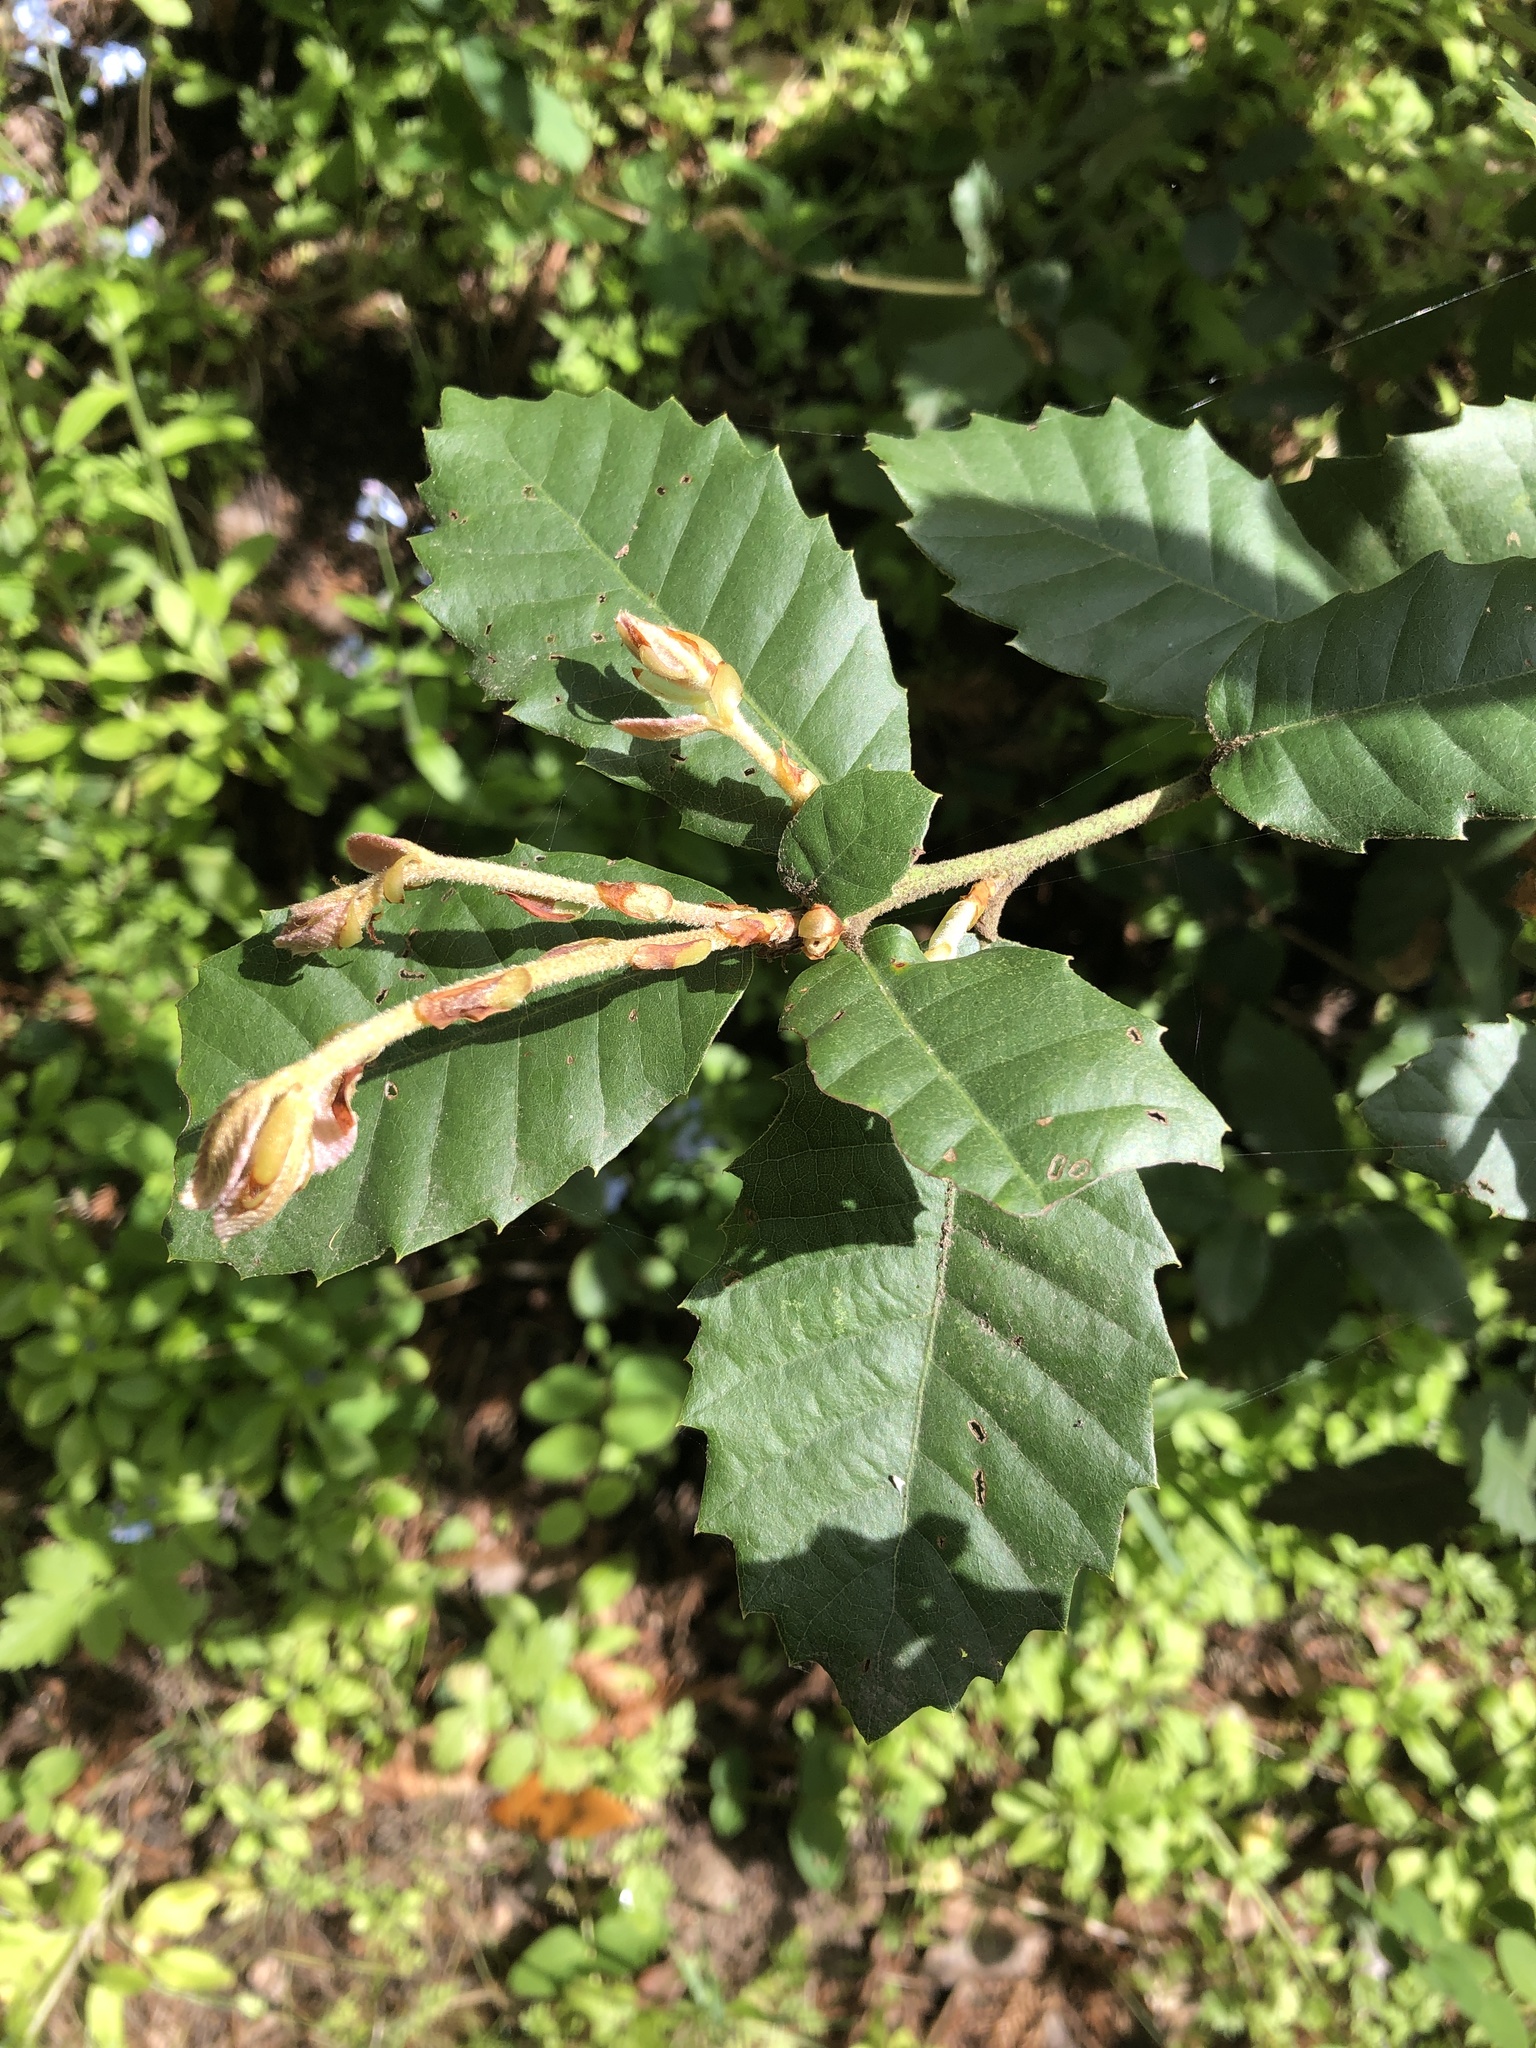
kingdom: Plantae
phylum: Tracheophyta
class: Magnoliopsida
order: Fagales
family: Fagaceae
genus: Notholithocarpus
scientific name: Notholithocarpus densiflorus
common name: Tan bark oak
